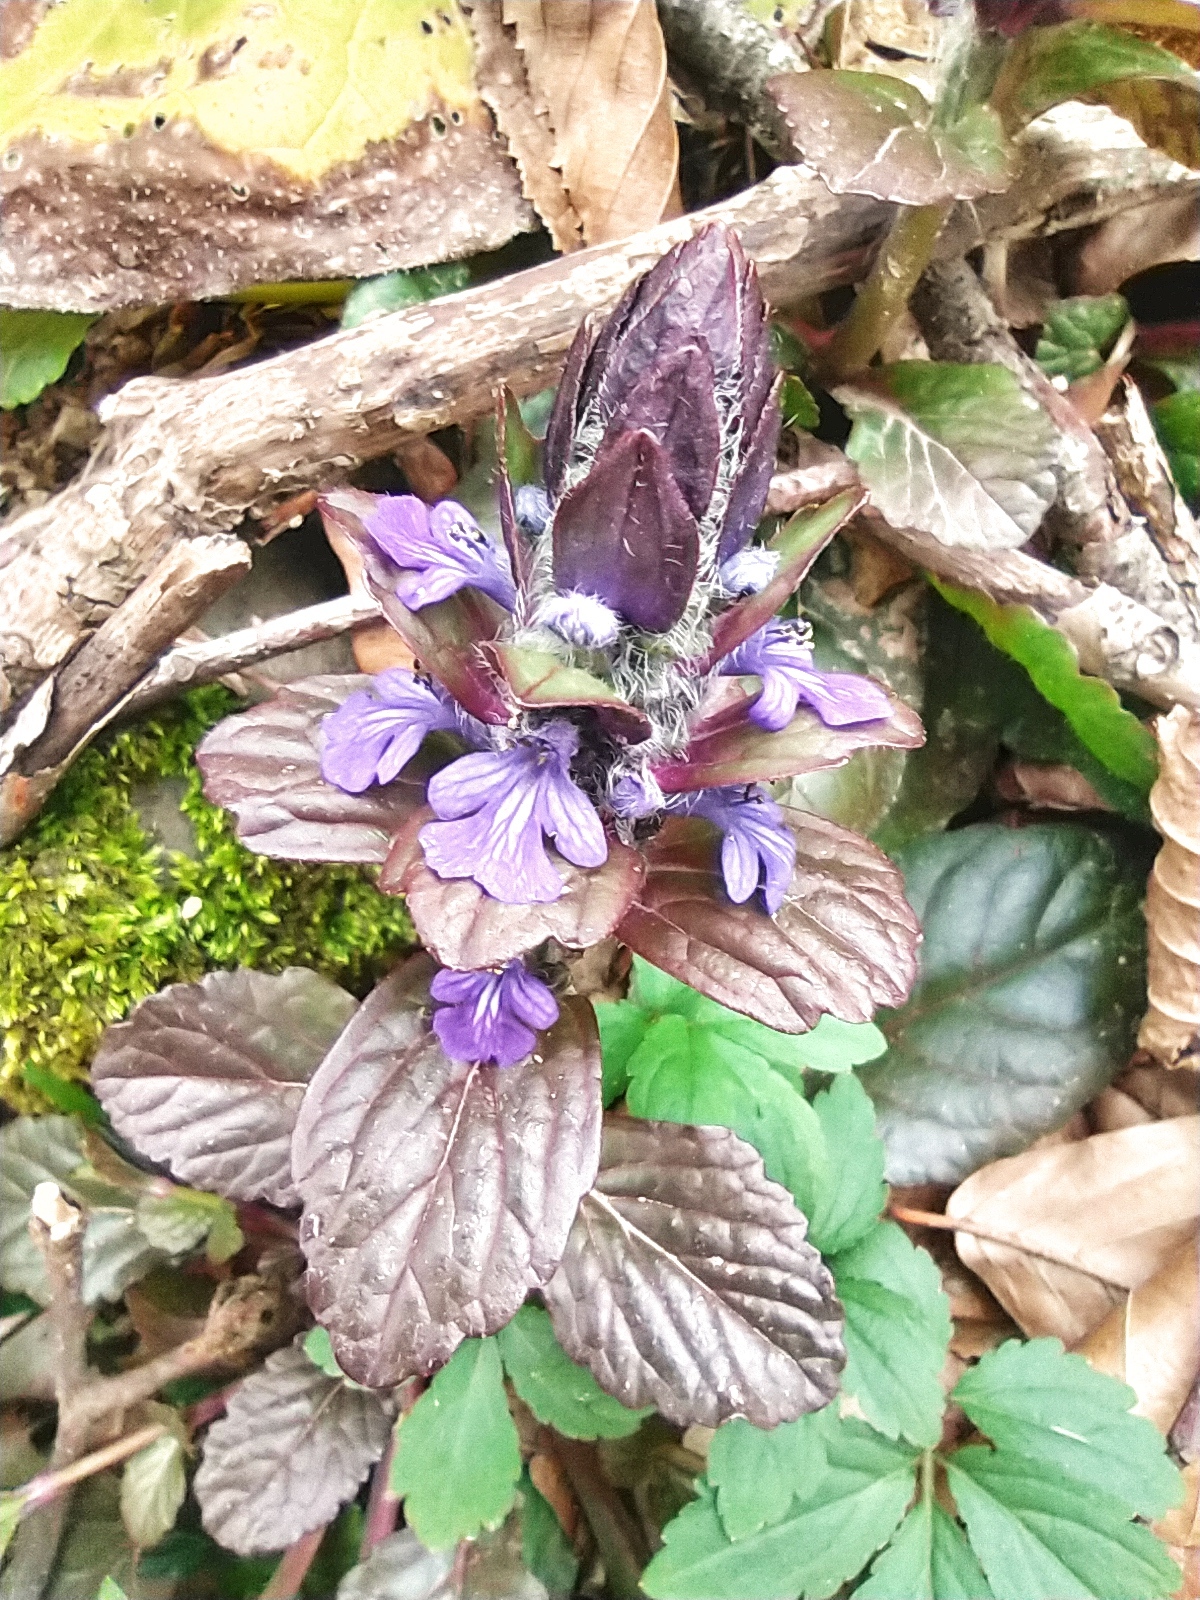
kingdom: Plantae
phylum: Tracheophyta
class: Magnoliopsida
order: Lamiales
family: Lamiaceae
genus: Ajuga
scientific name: Ajuga reptans
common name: Bugle
